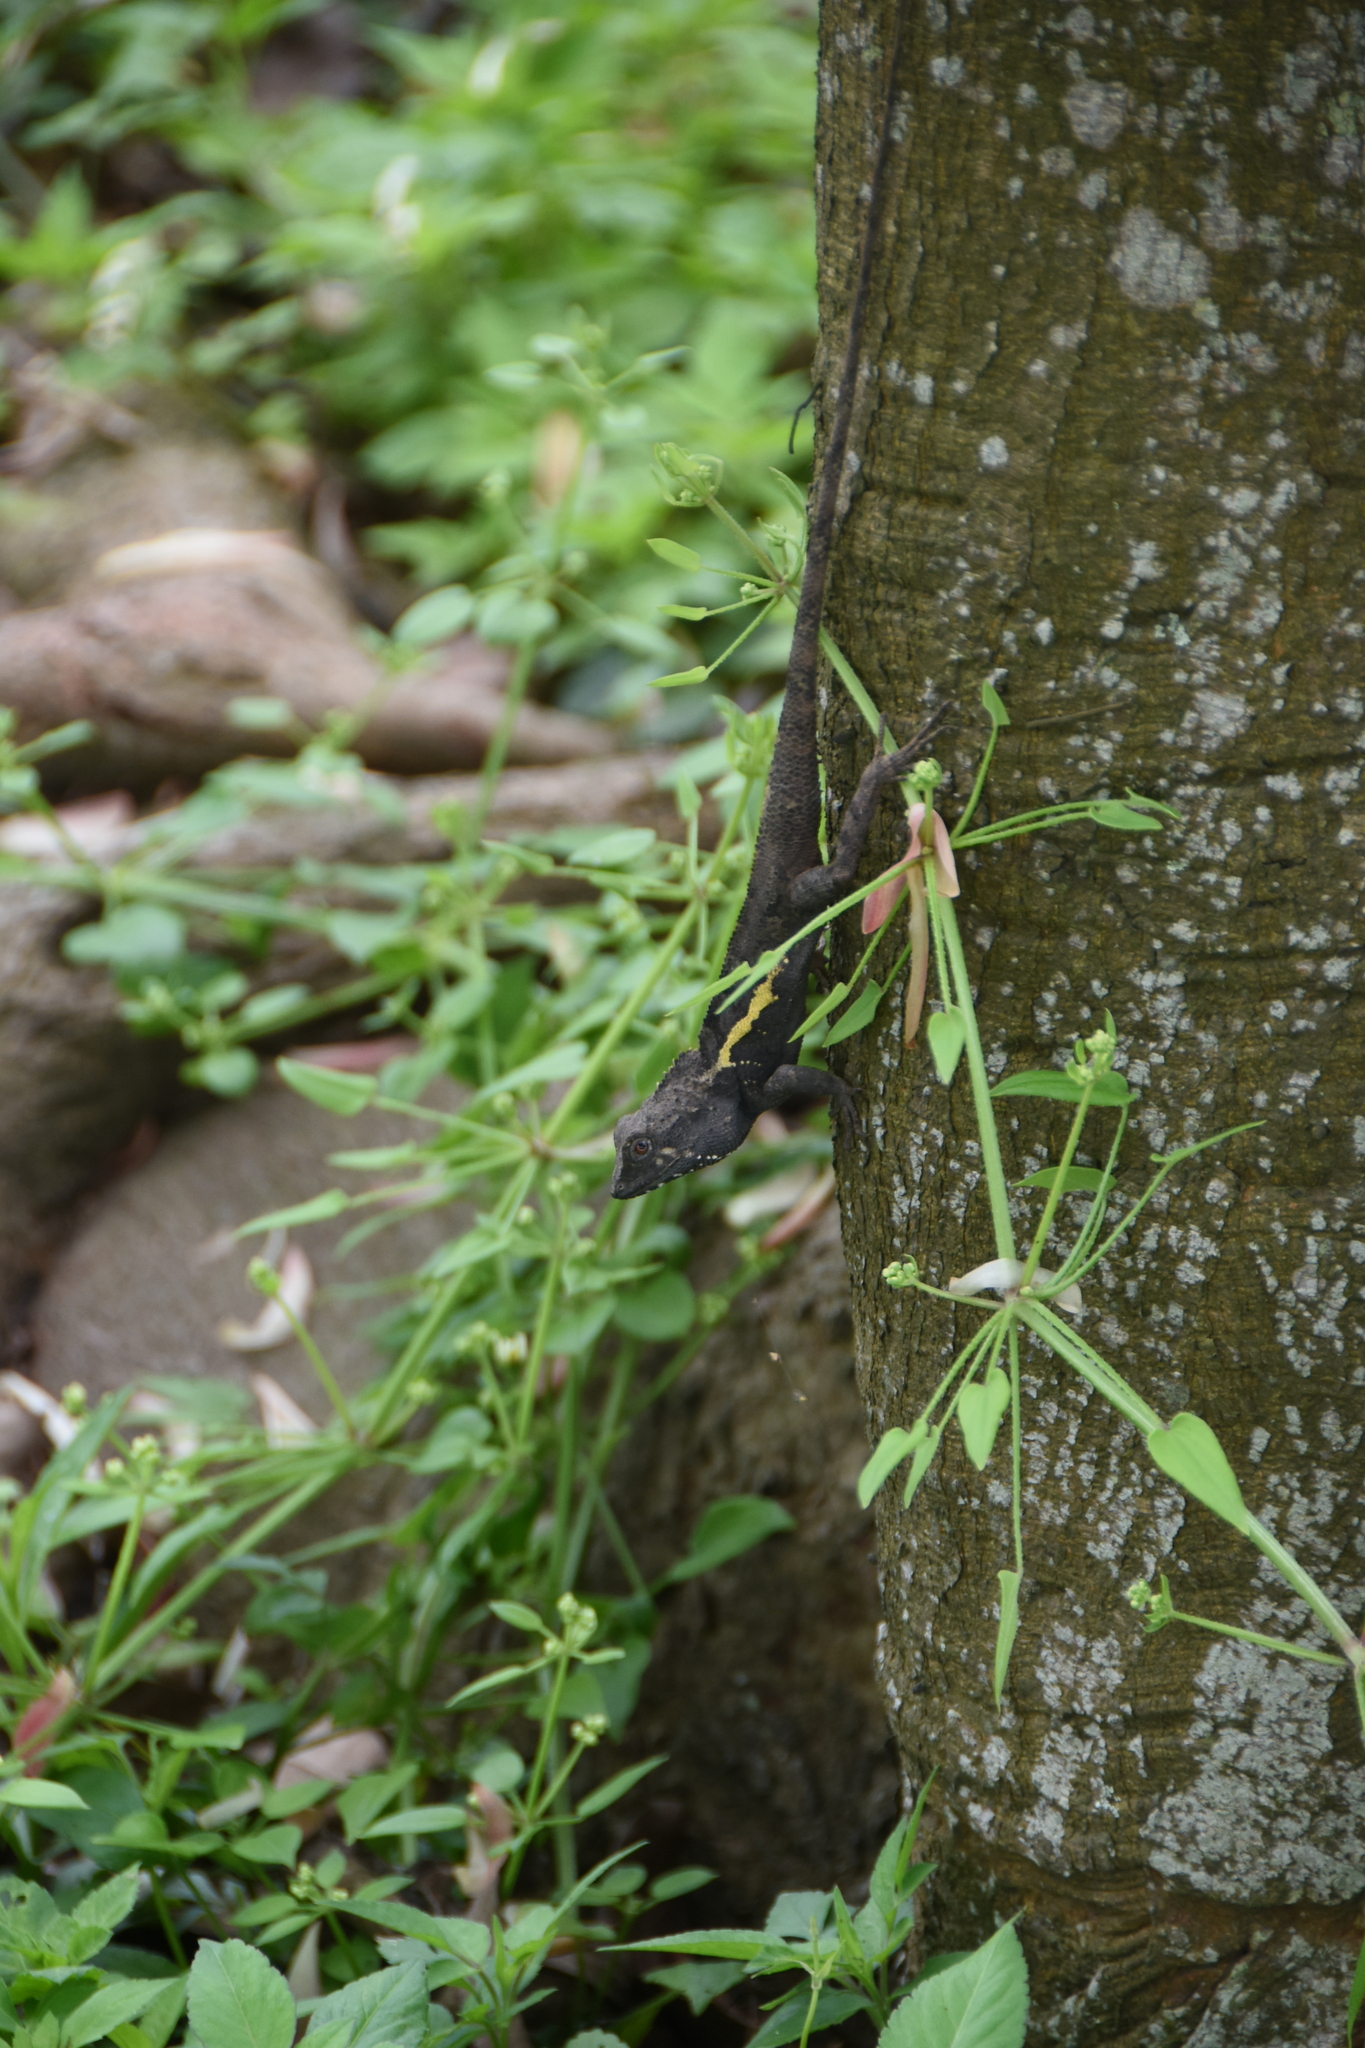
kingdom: Animalia
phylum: Chordata
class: Squamata
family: Agamidae
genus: Diploderma
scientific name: Diploderma swinhonis
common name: Taiwan japalure
